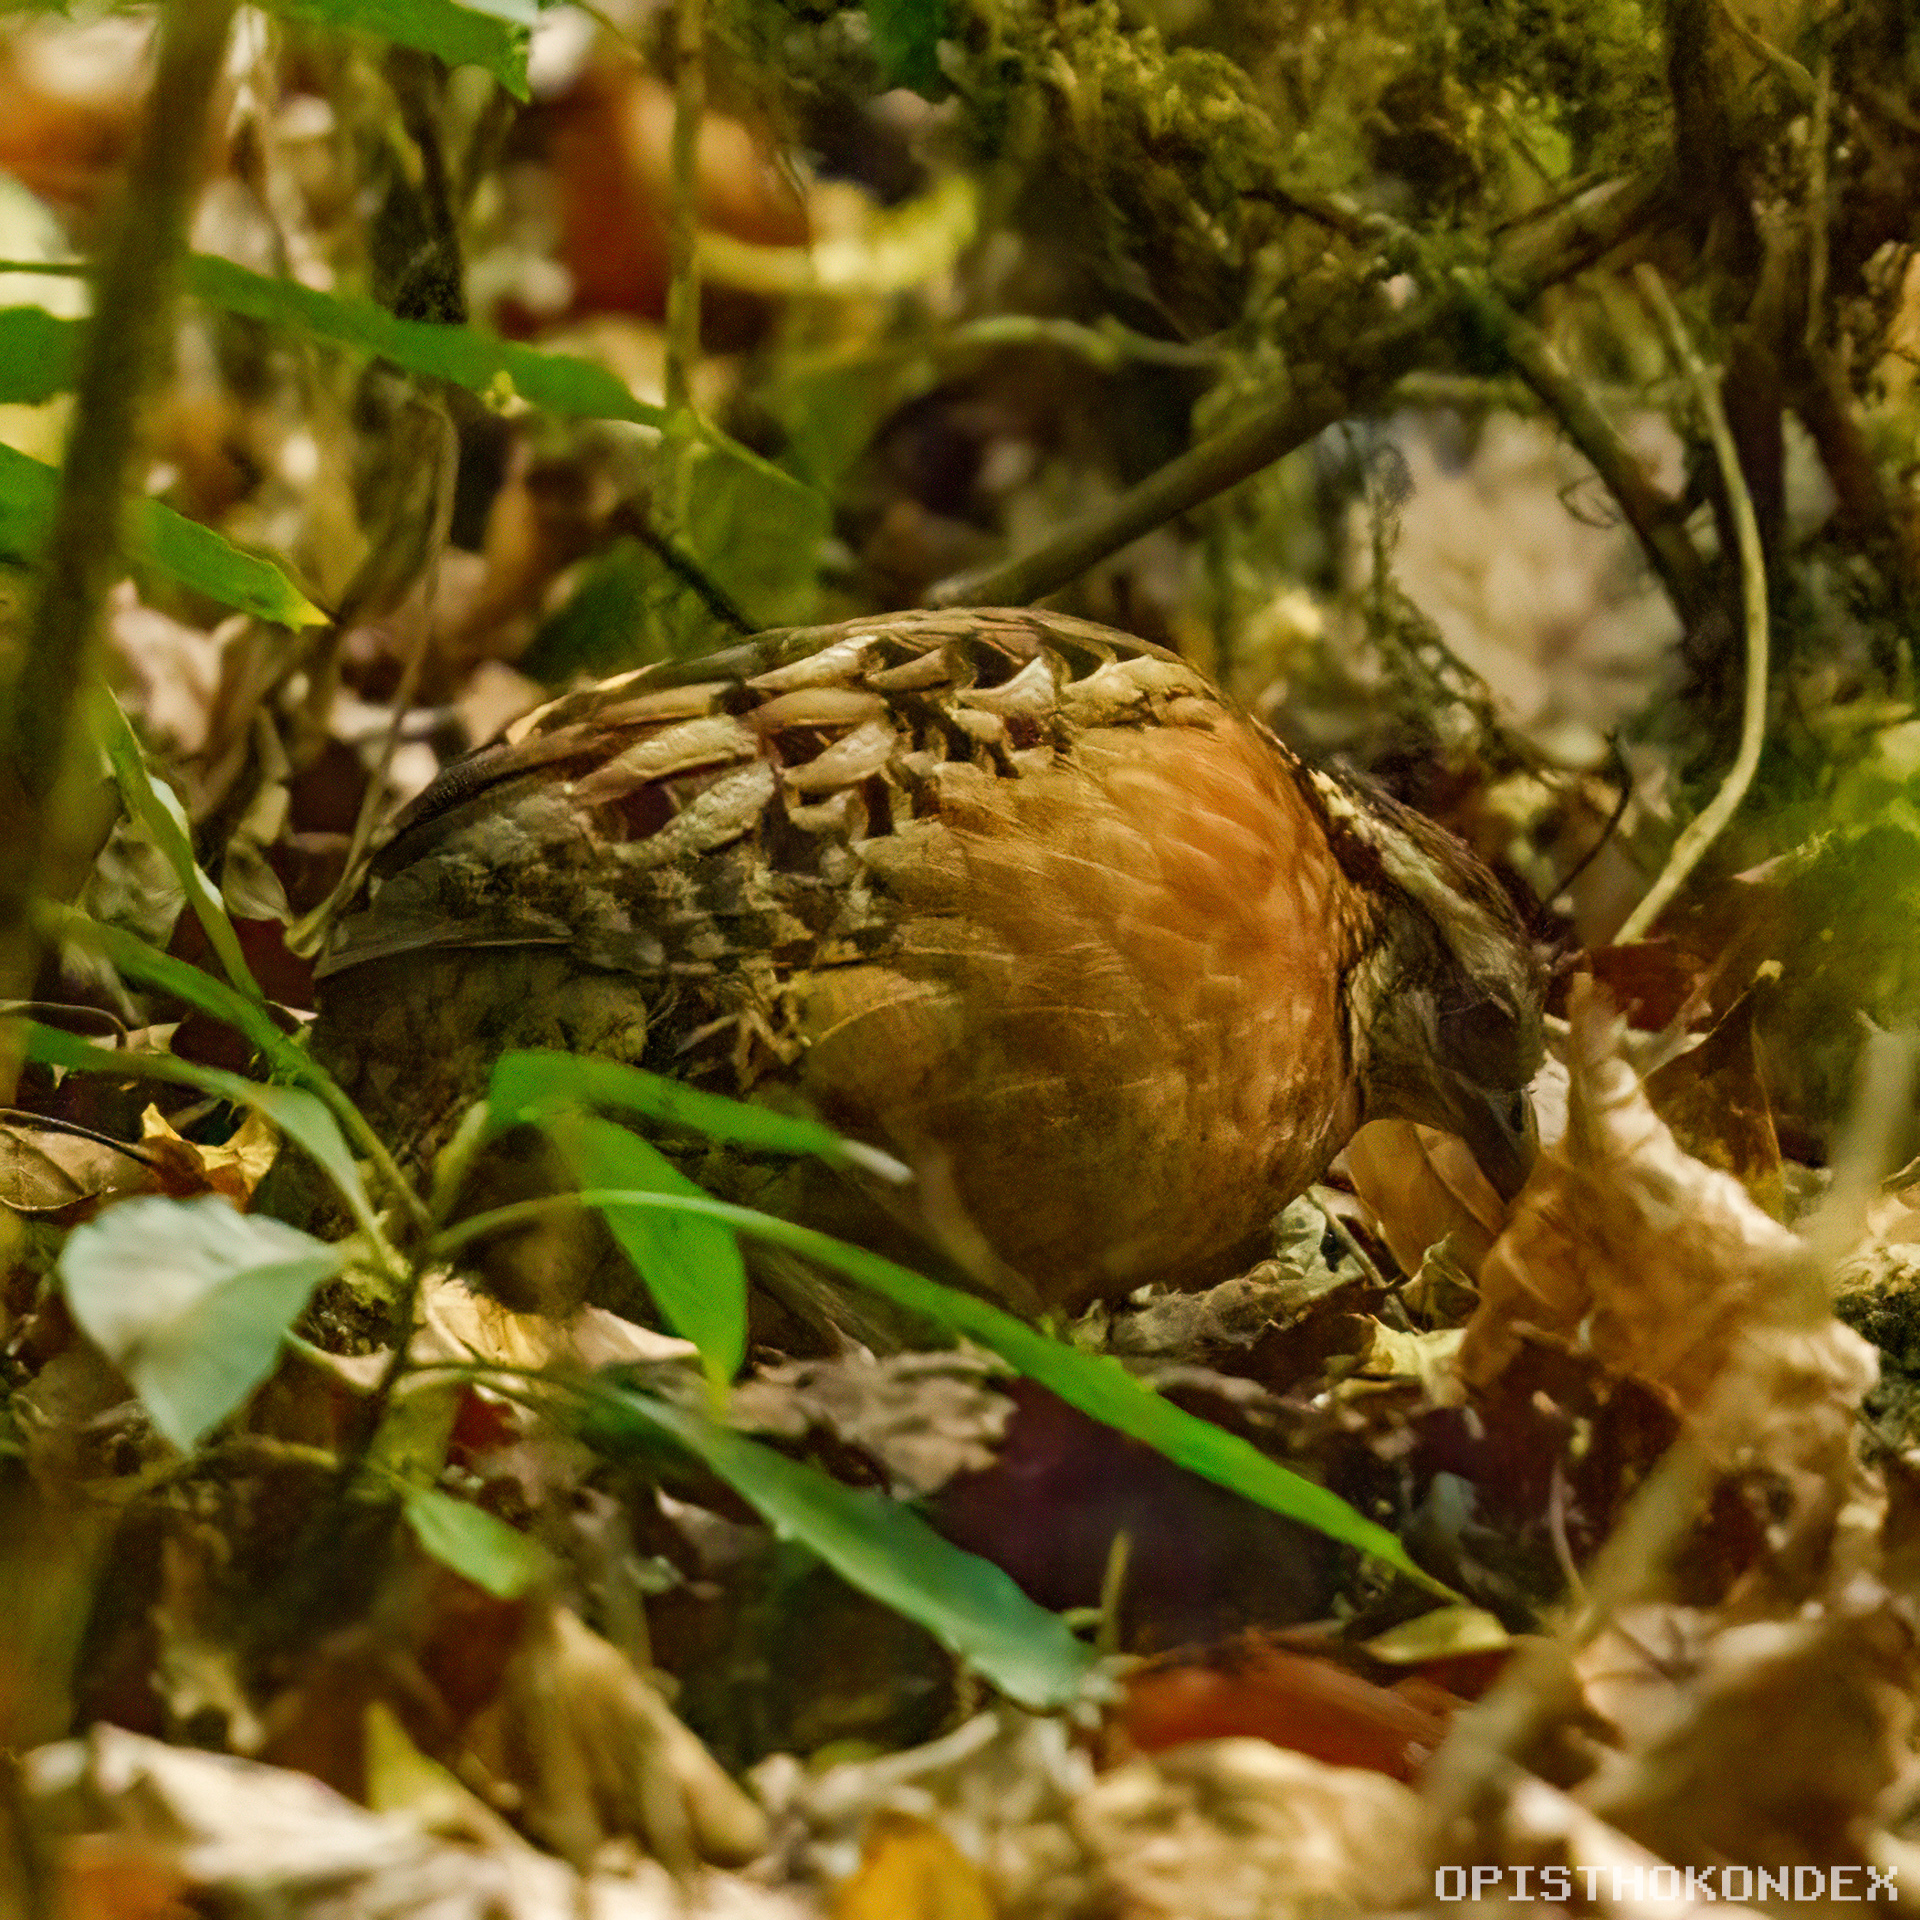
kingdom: Animalia
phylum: Chordata
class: Aves
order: Galliformes
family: Odontophoridae
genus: Dactylortyx
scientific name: Dactylortyx thoracicus
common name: Singing quail
